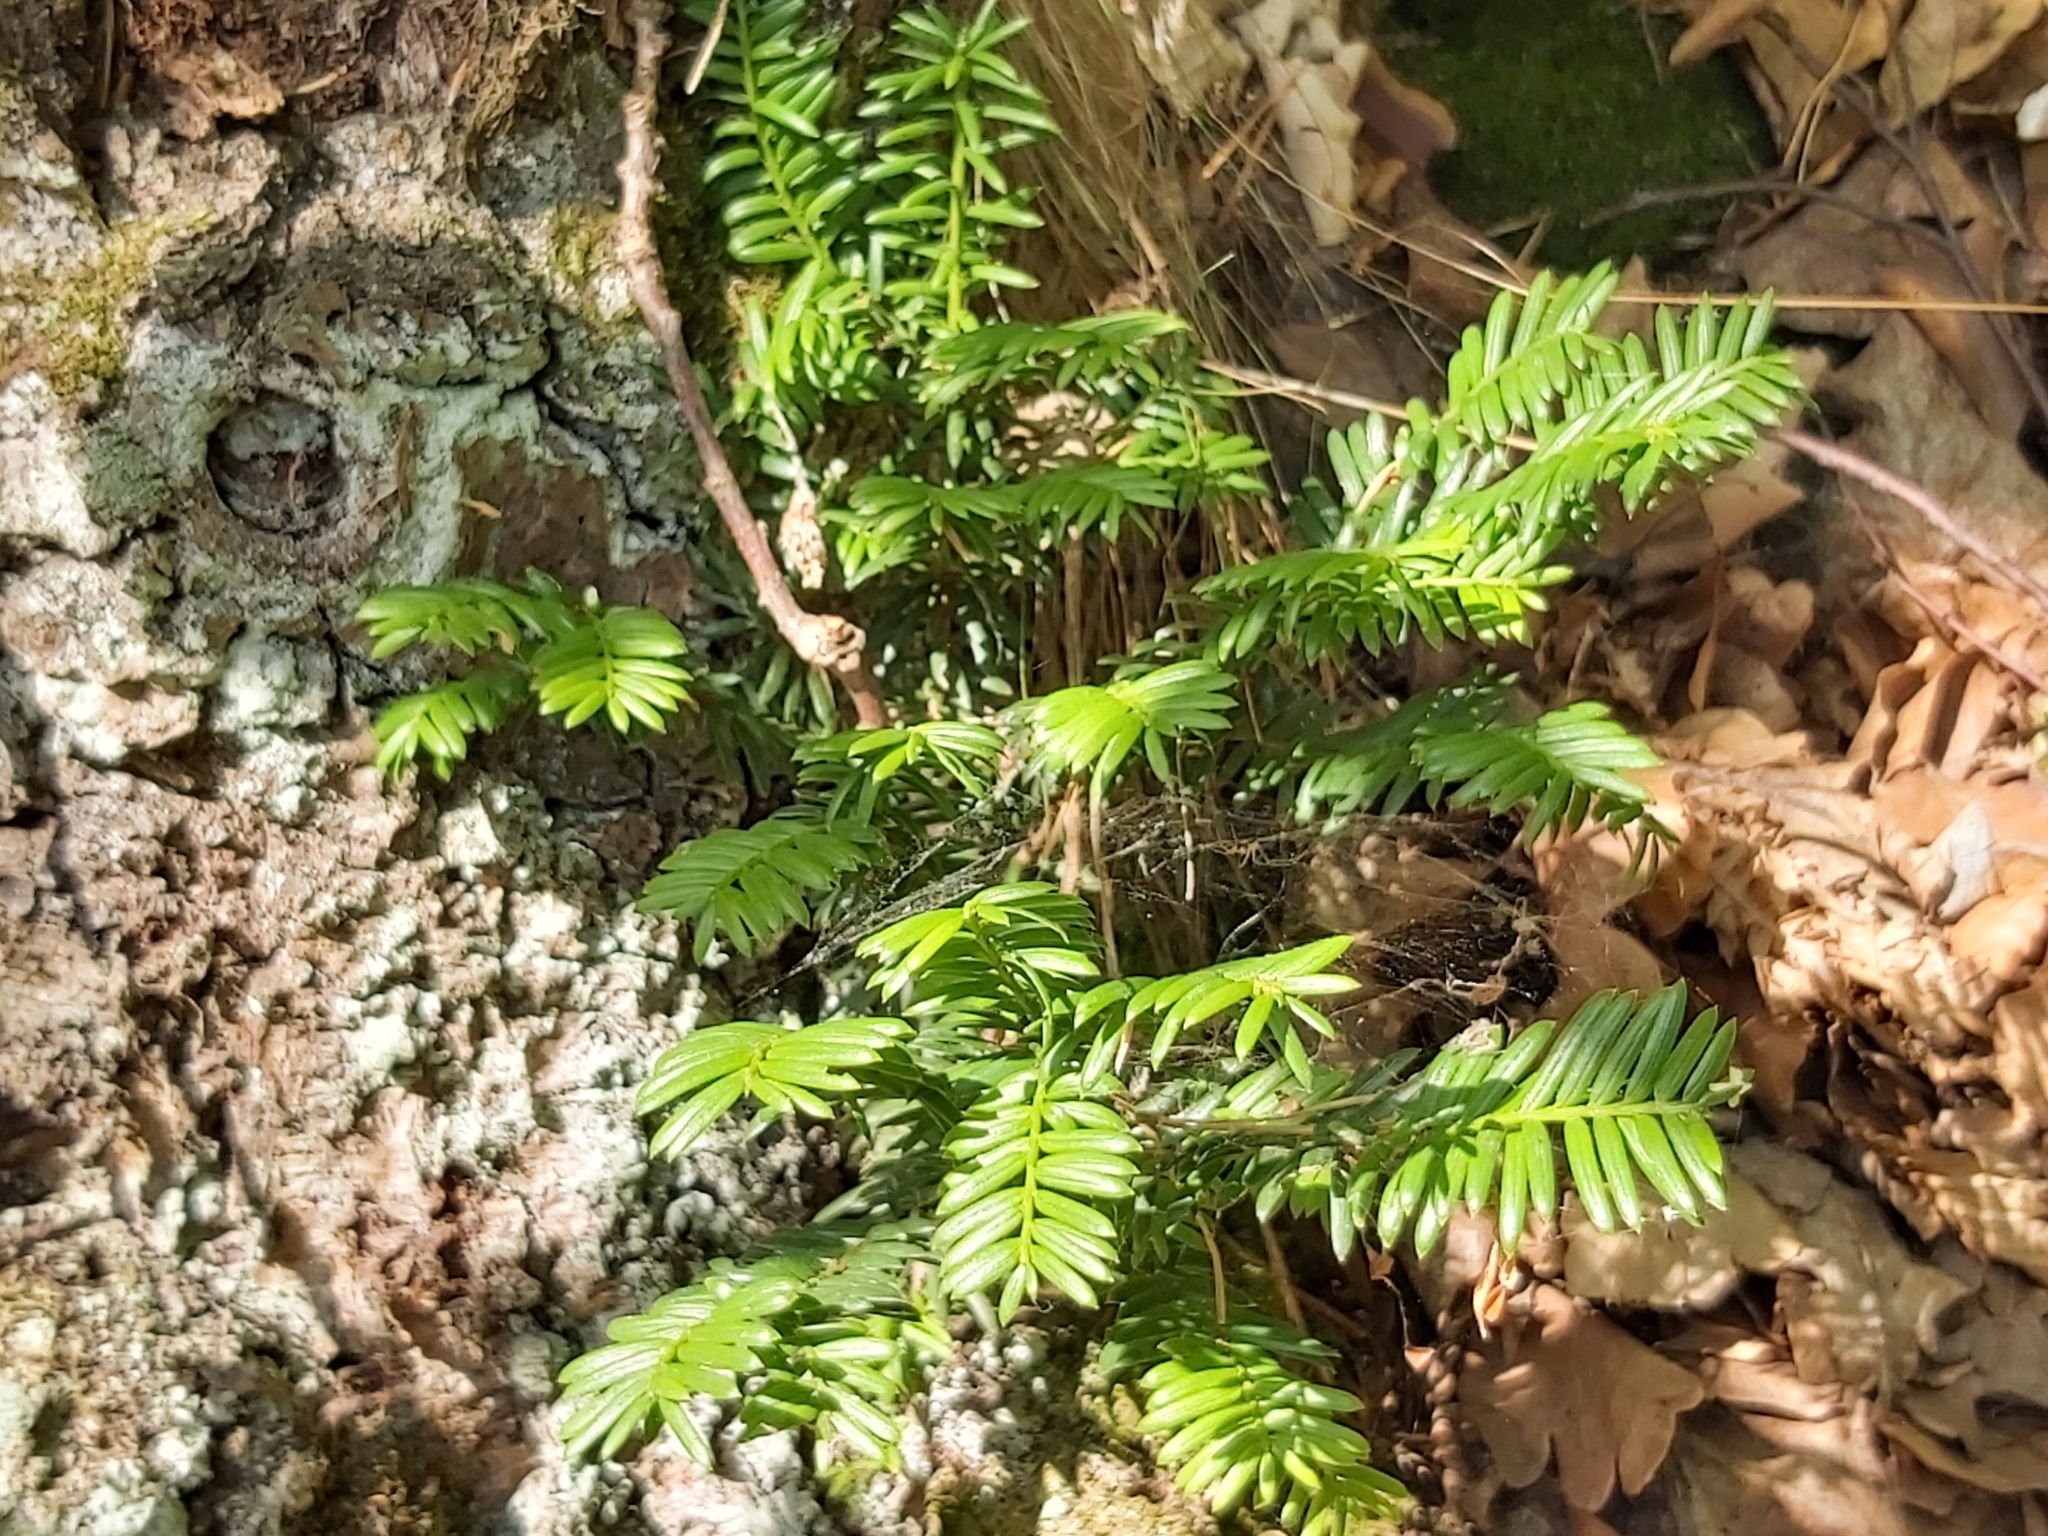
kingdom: Plantae
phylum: Tracheophyta
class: Pinopsida
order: Pinales
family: Taxaceae
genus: Taxus
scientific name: Taxus baccata
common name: Yew
